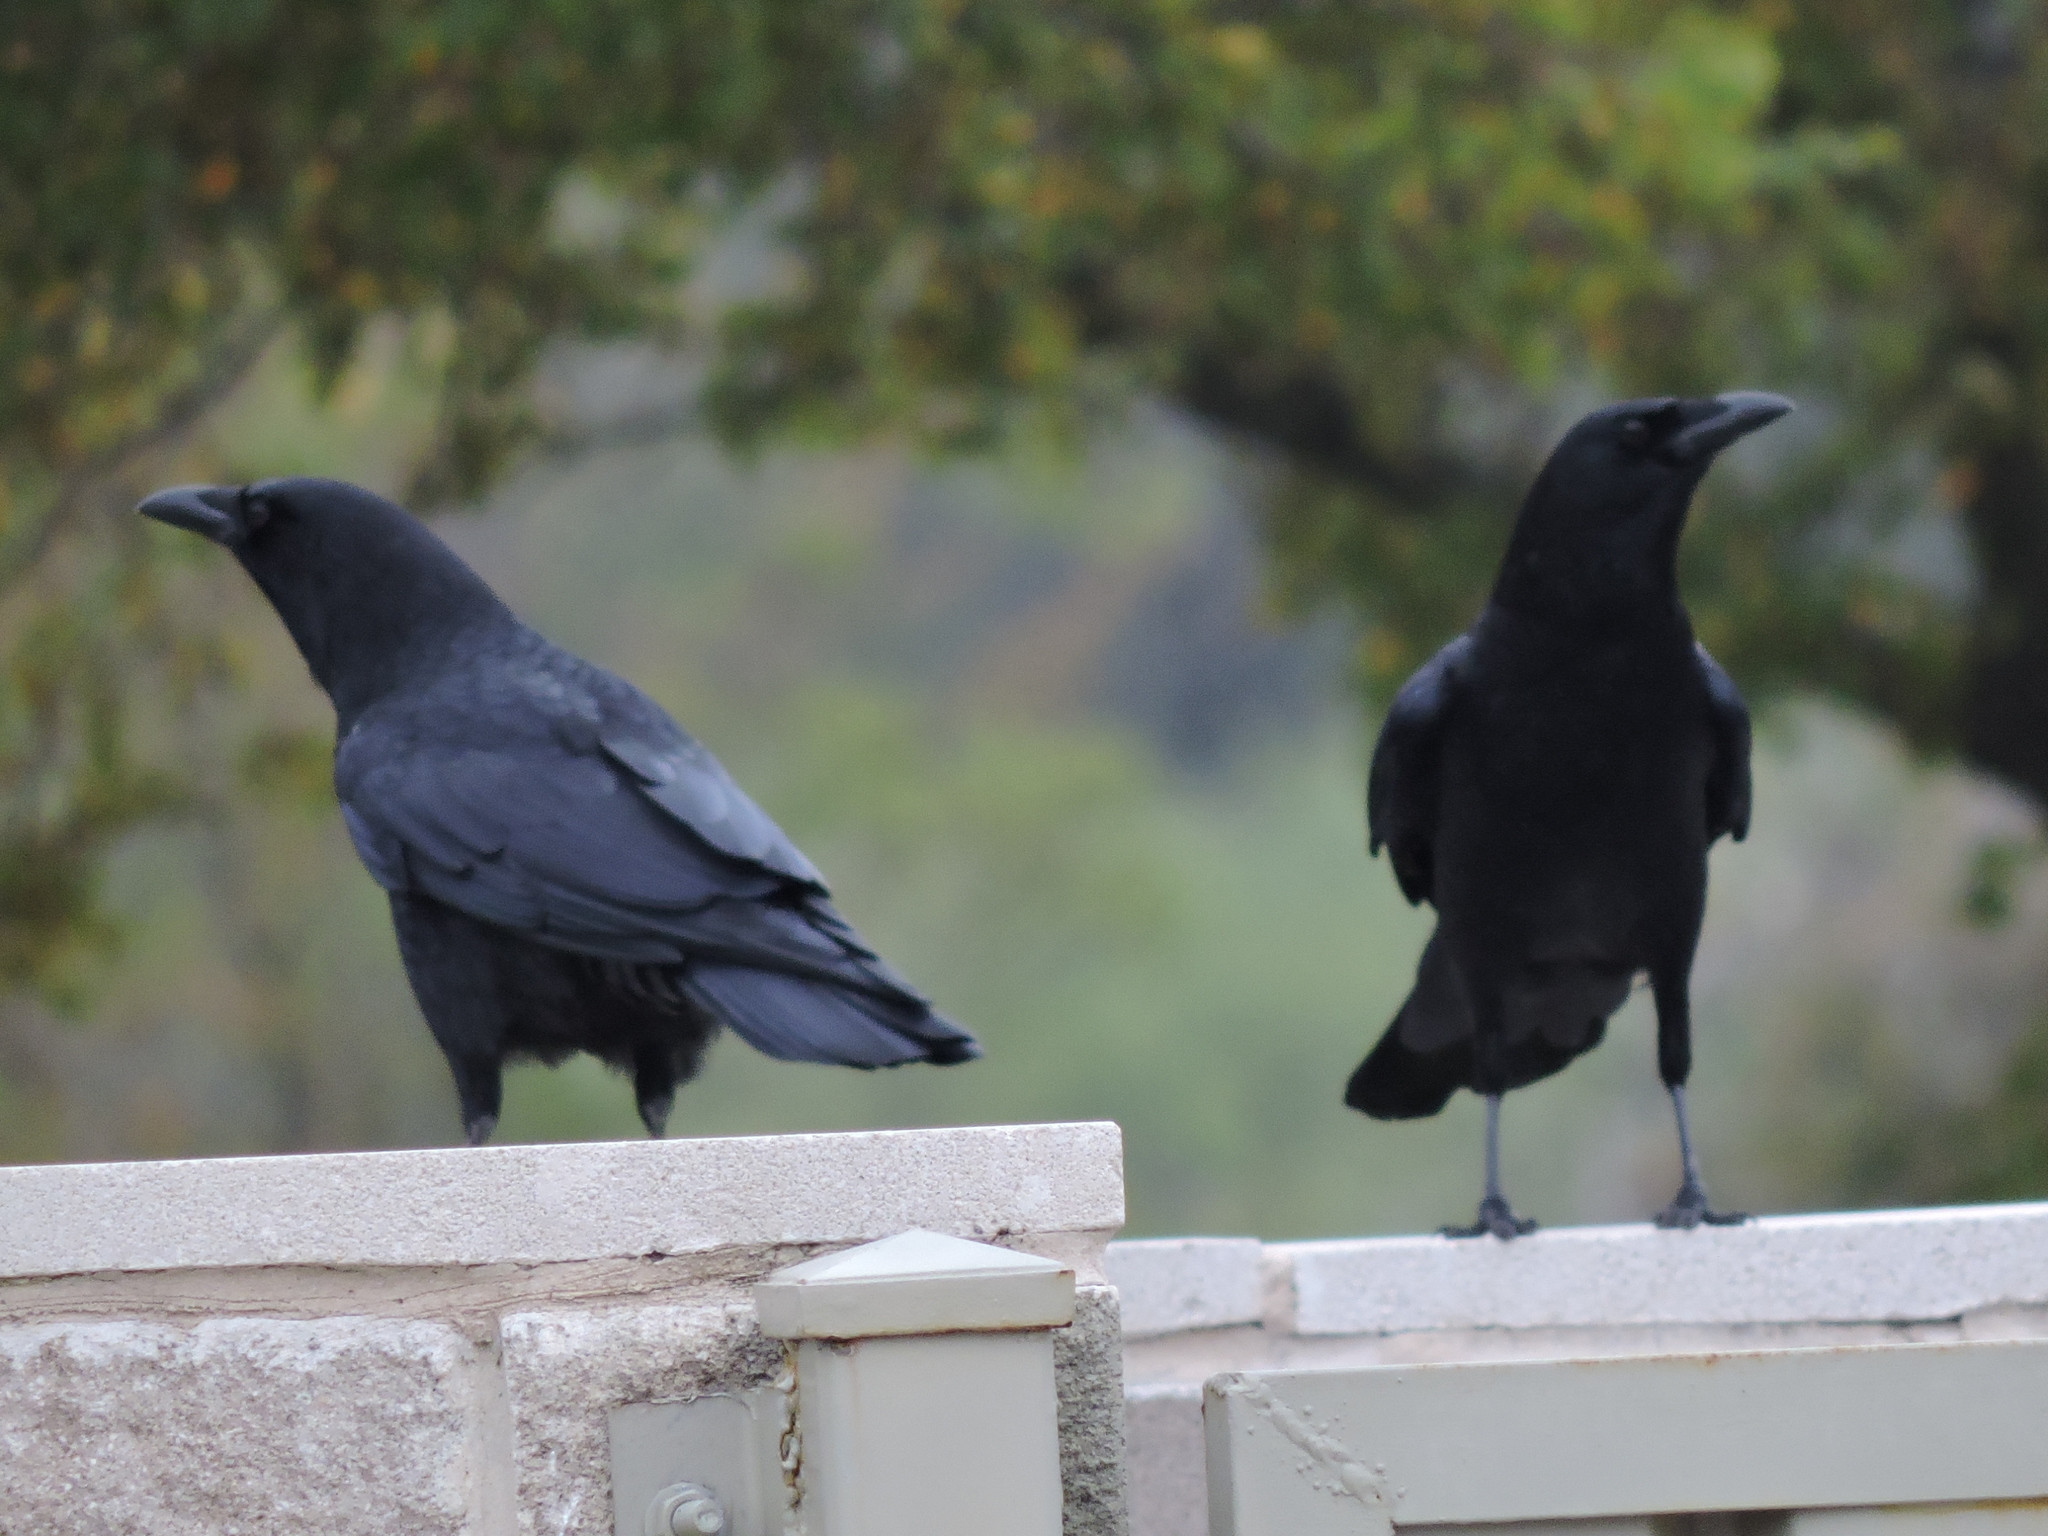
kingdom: Animalia
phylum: Chordata
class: Aves
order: Passeriformes
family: Corvidae
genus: Corvus
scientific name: Corvus brachyrhynchos
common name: American crow
